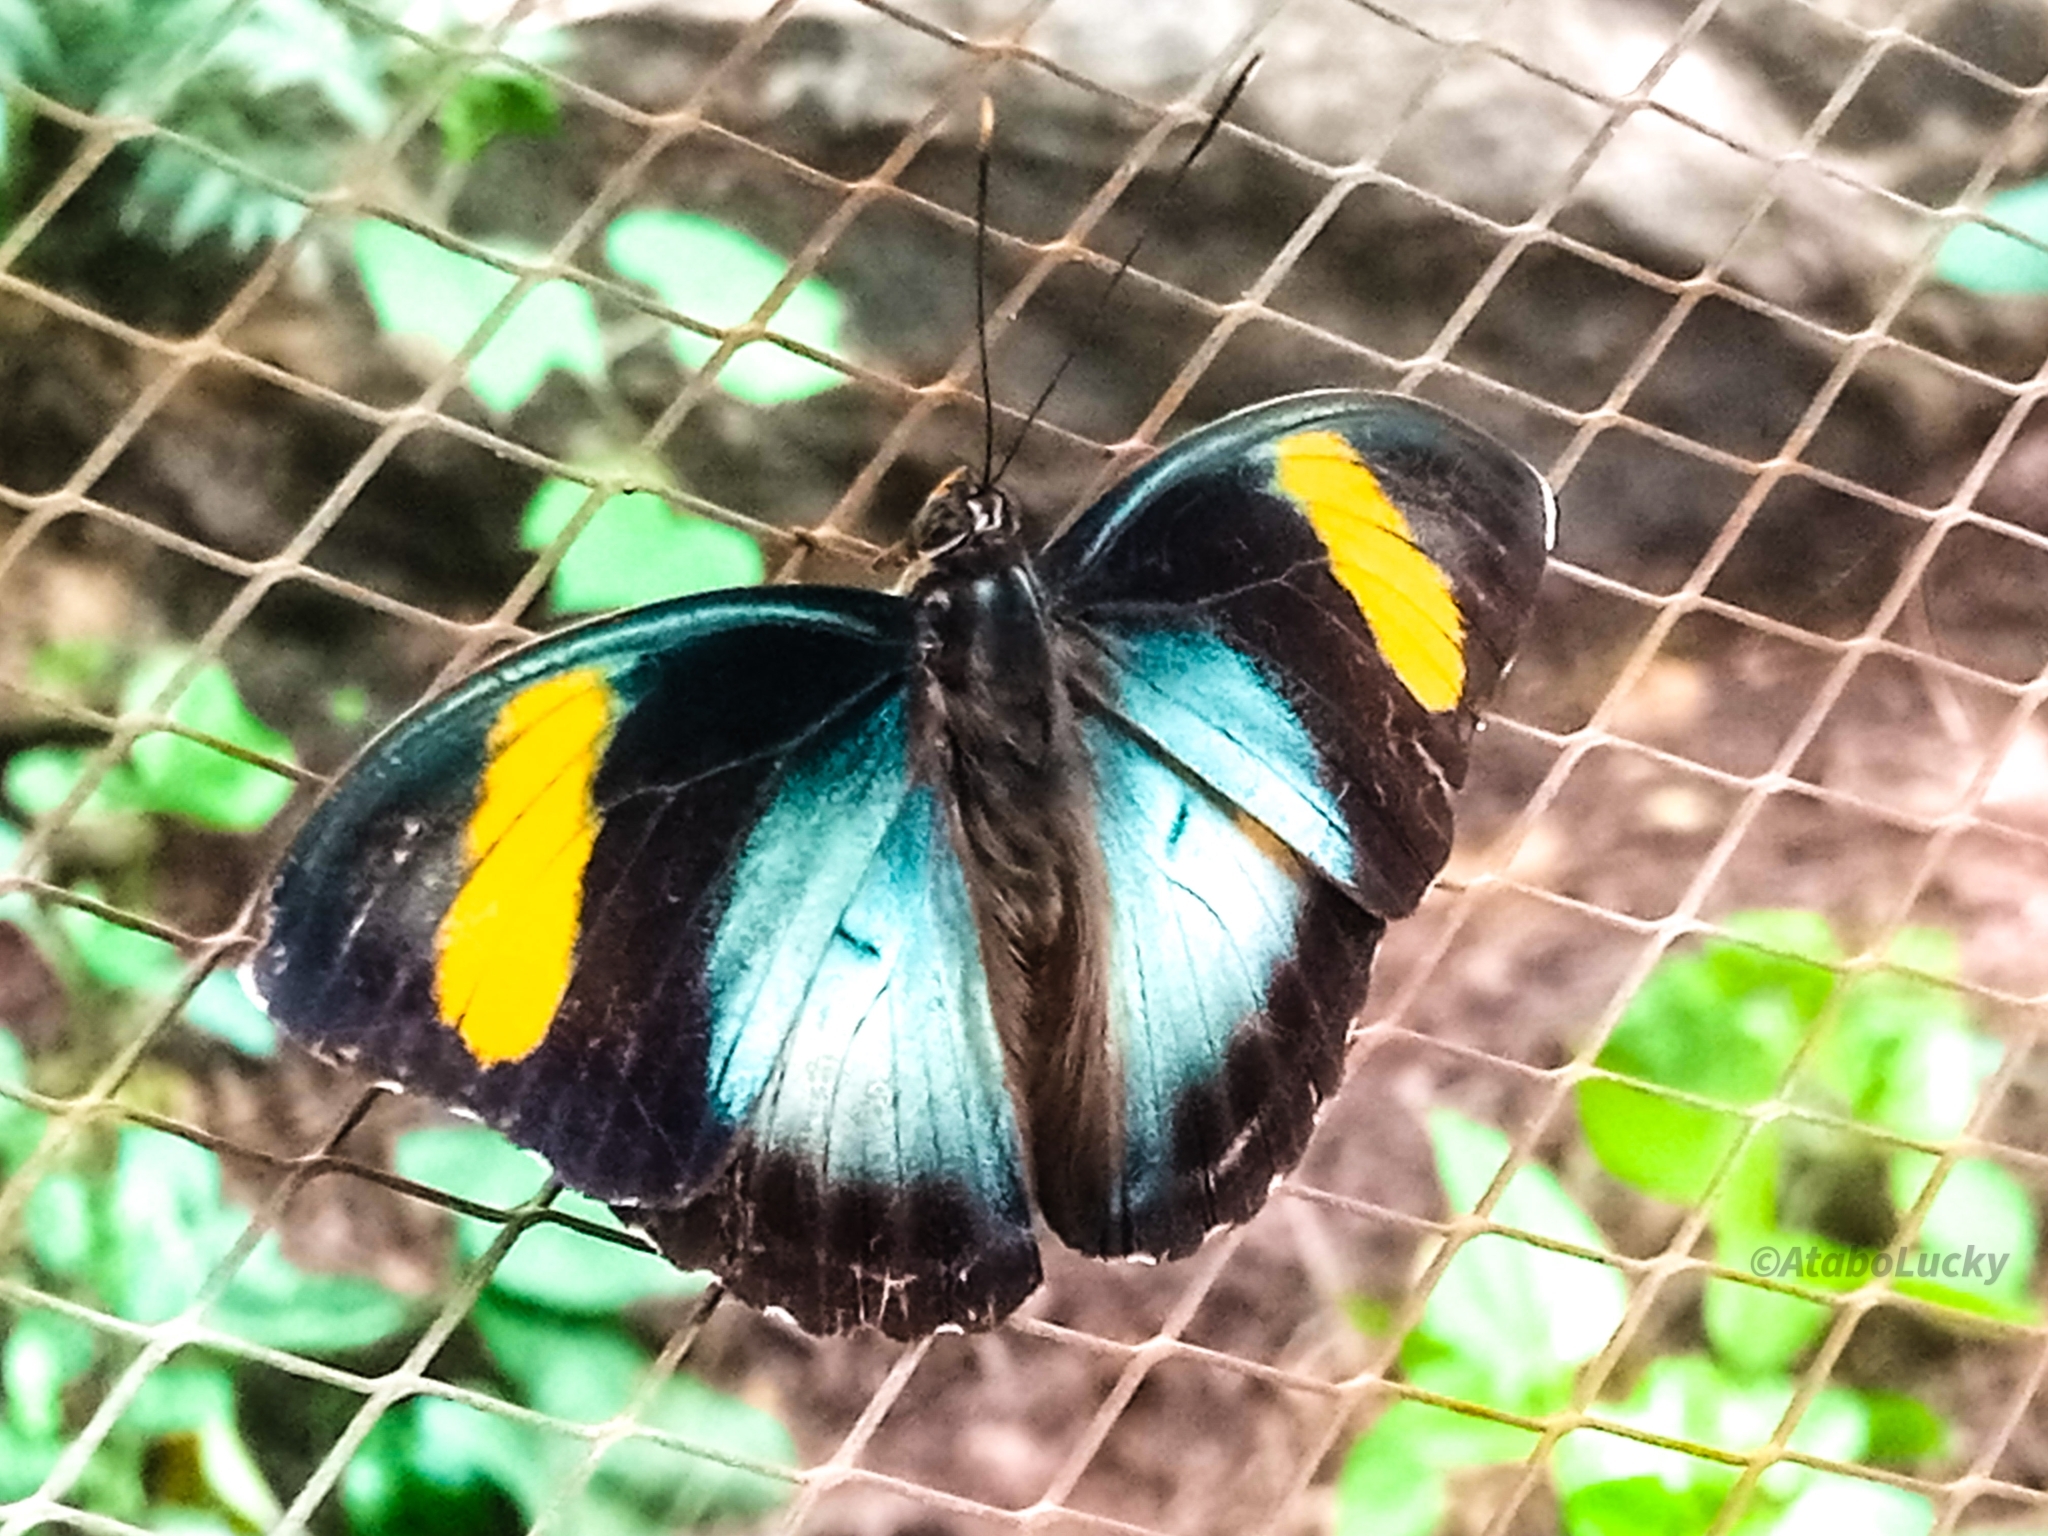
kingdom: Animalia
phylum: Arthropoda
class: Insecta
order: Lepidoptera
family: Nymphalidae
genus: Euphaedra
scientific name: Euphaedra ceres
